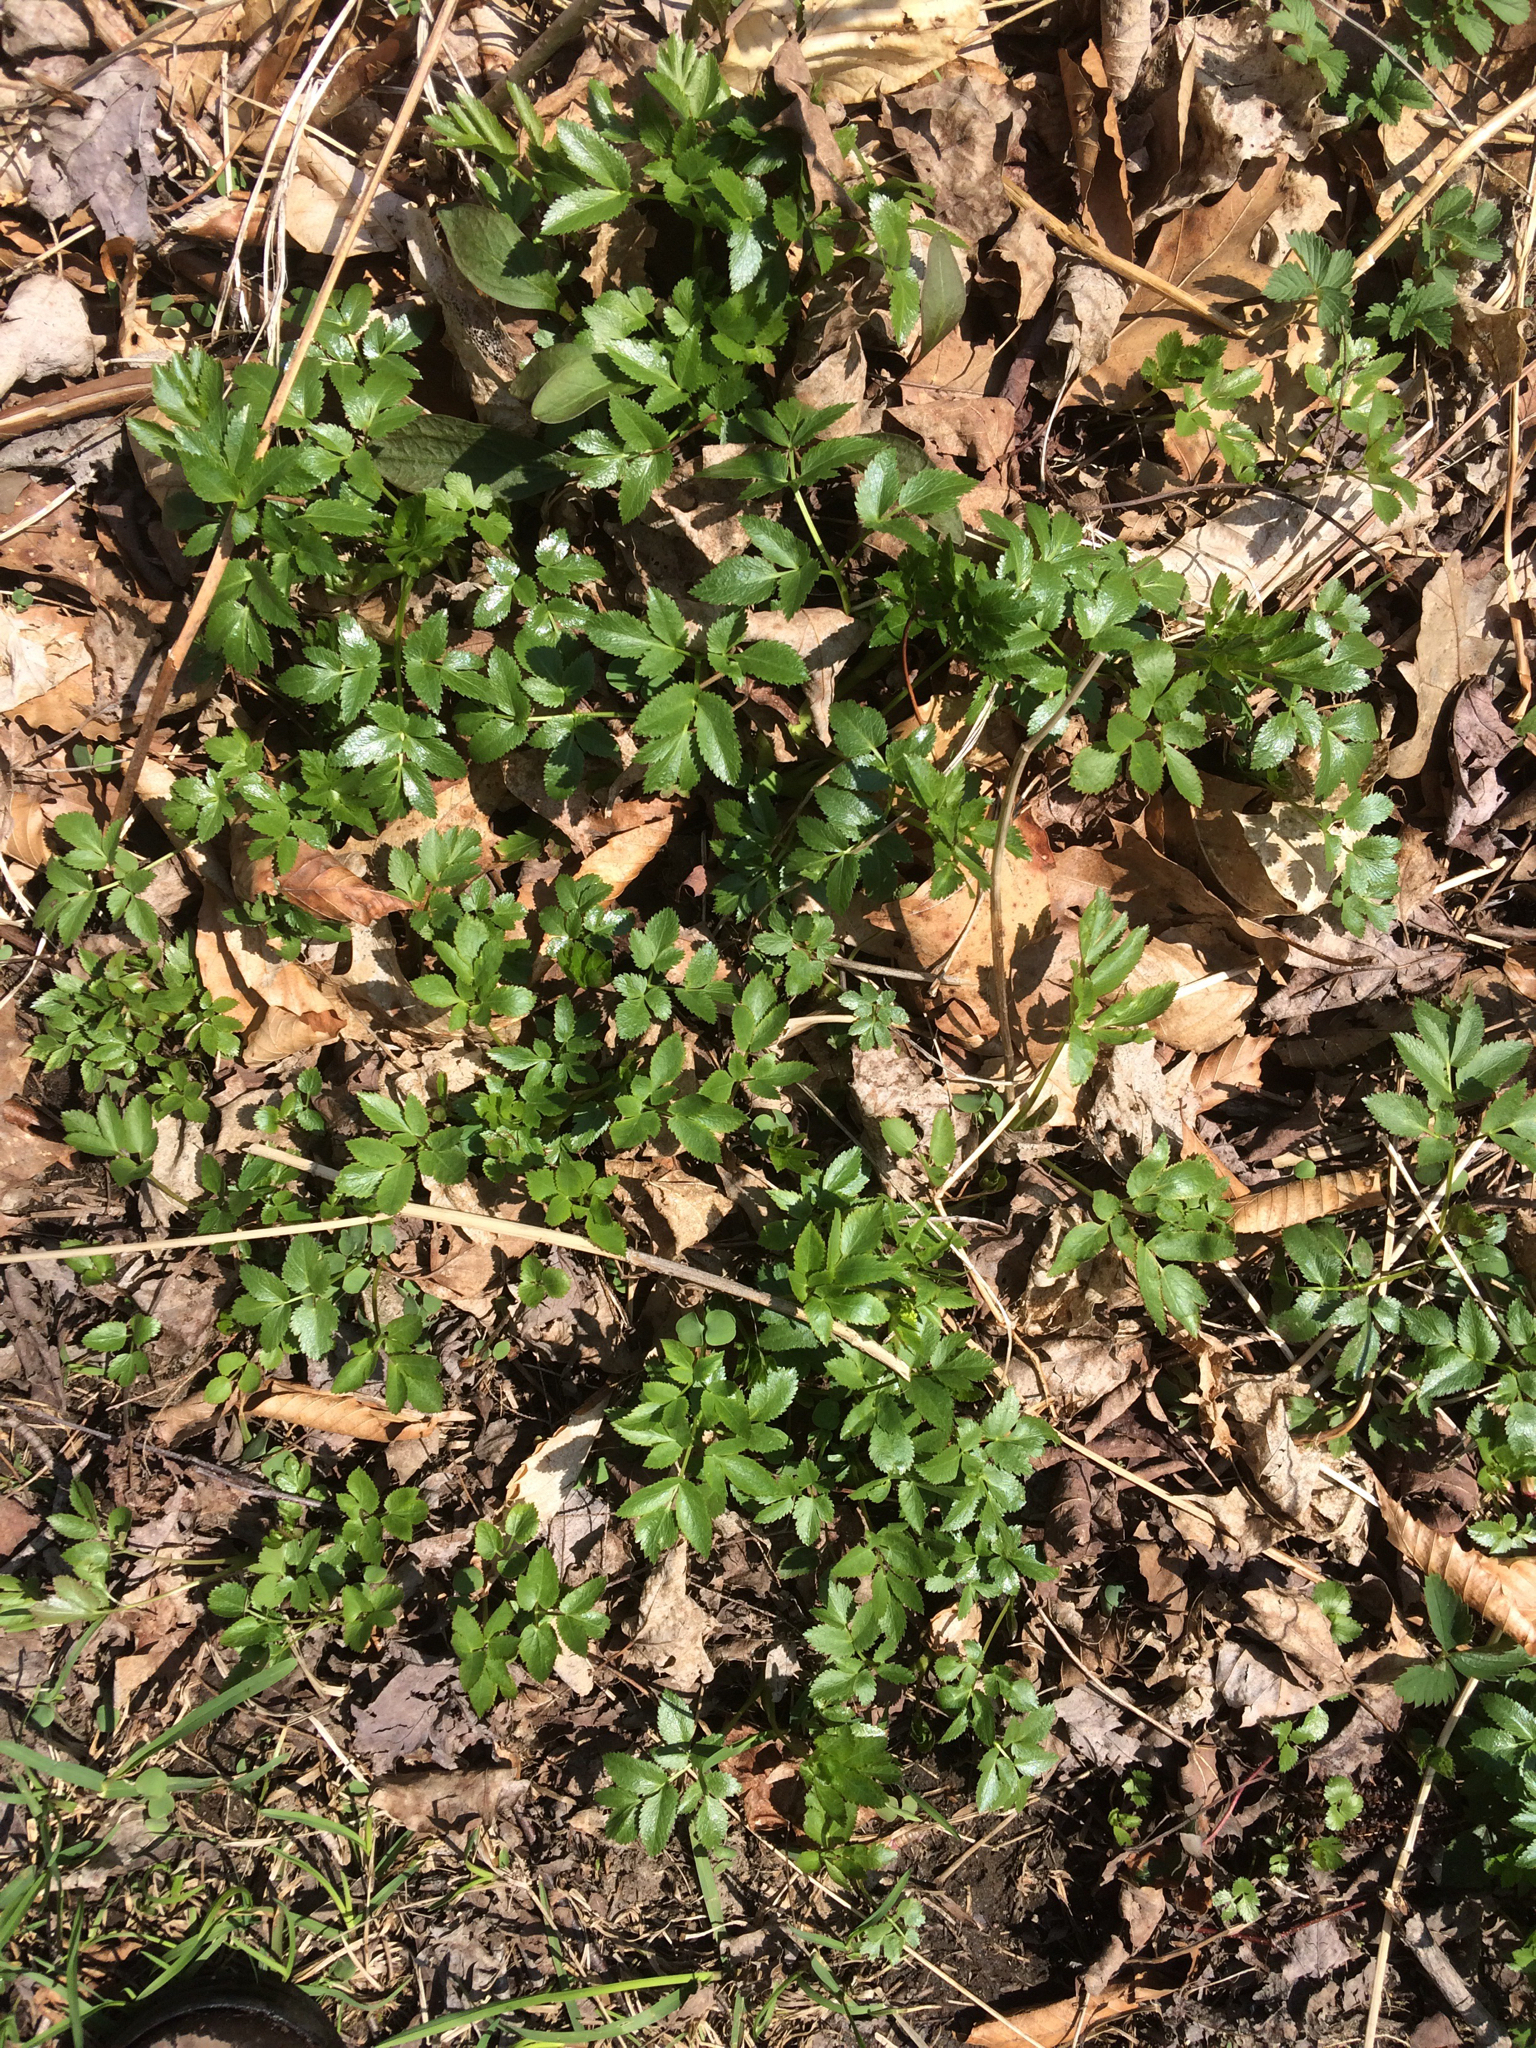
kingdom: Plantae
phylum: Tracheophyta
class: Magnoliopsida
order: Apiales
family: Apiaceae
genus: Aegopodium
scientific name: Aegopodium podagraria
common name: Ground-elder
